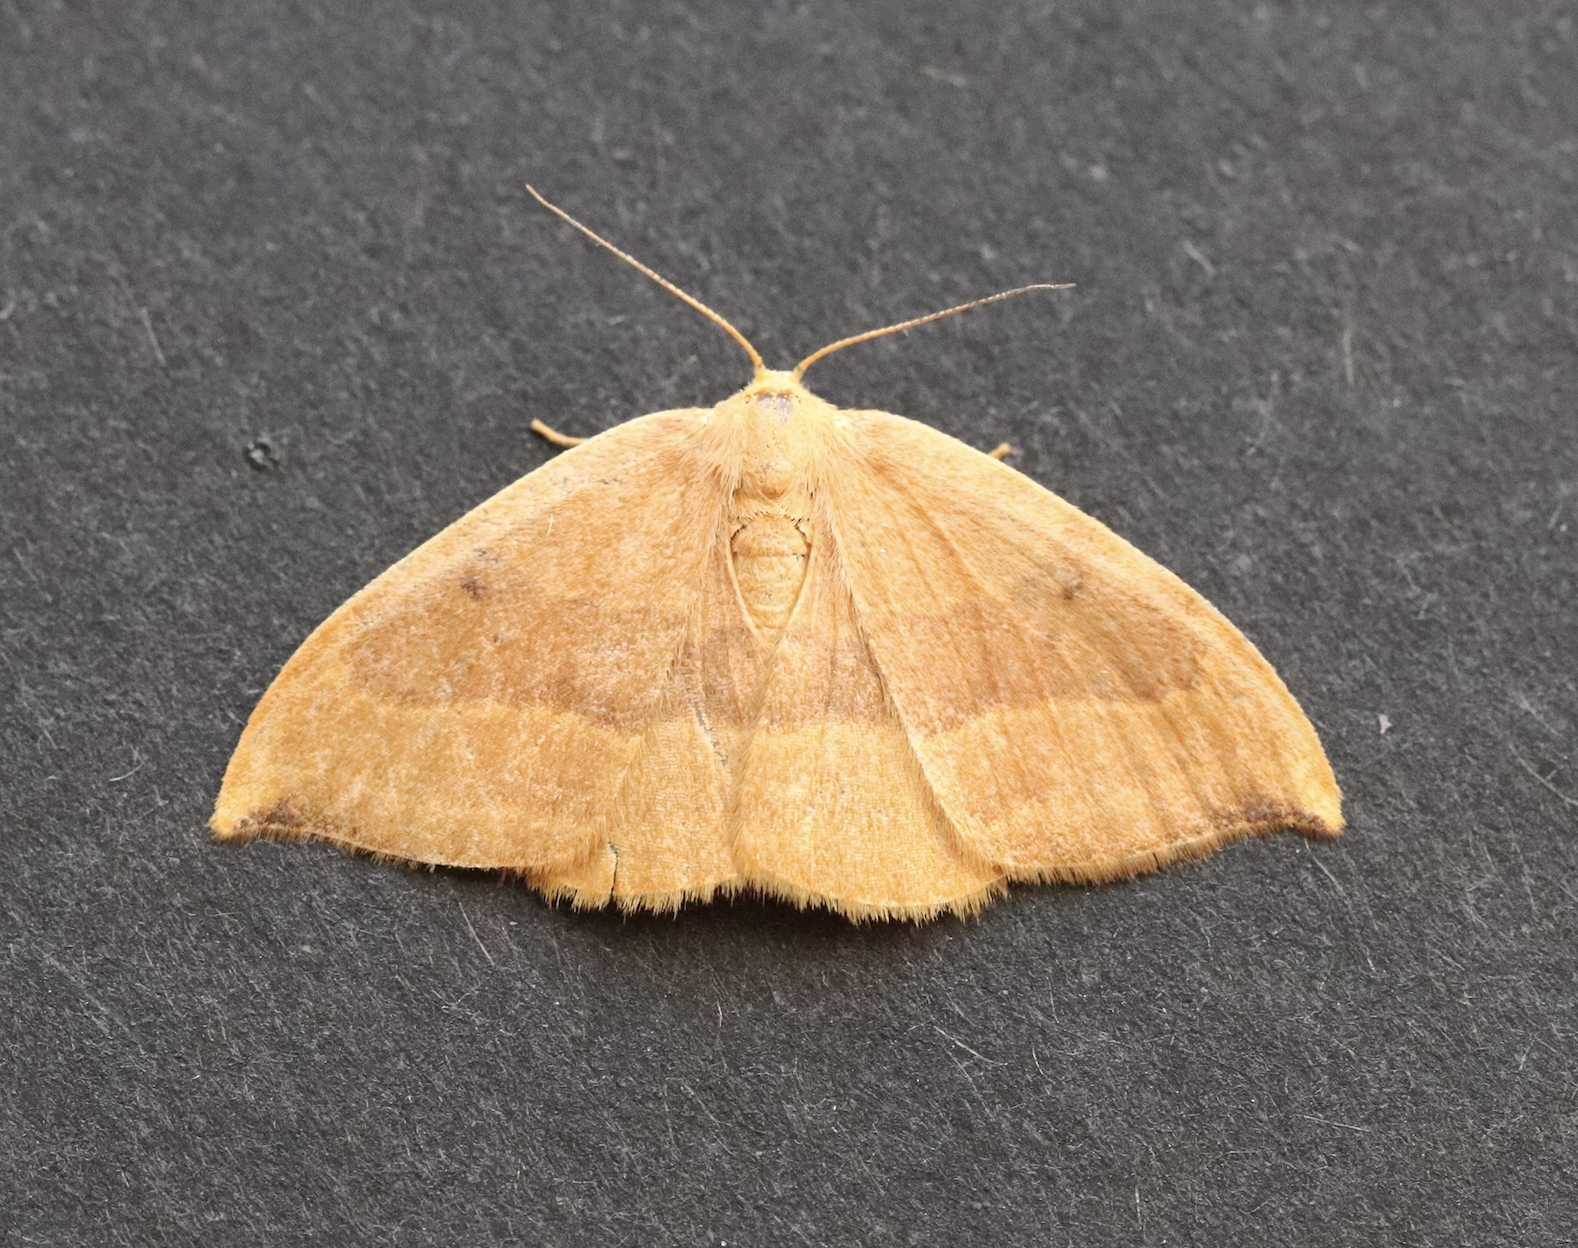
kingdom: Animalia
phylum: Arthropoda
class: Insecta
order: Lepidoptera
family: Drepanidae
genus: Watsonalla
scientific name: Watsonalla cultraria
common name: Barred hook-tip
